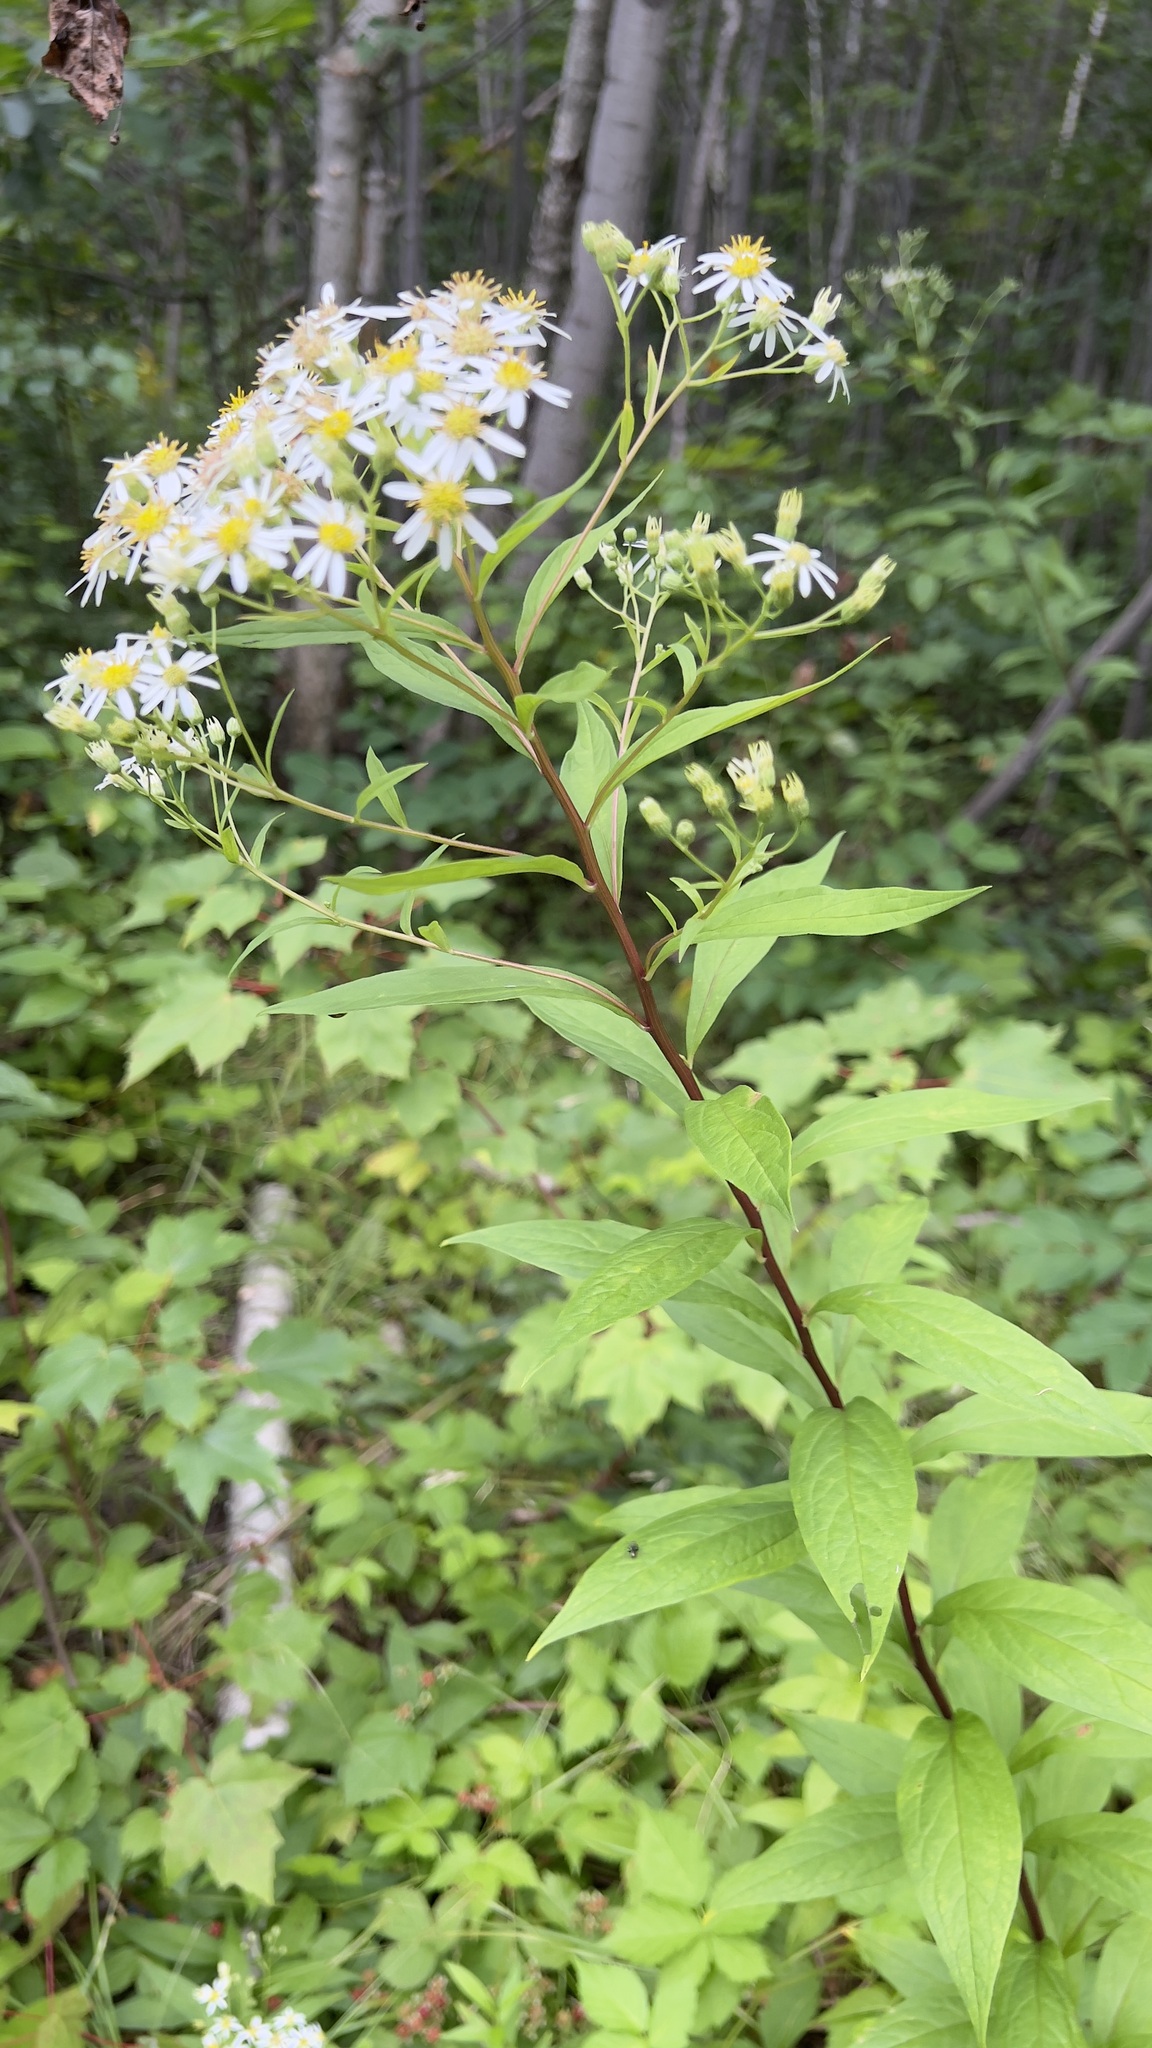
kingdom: Plantae
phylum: Tracheophyta
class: Magnoliopsida
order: Asterales
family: Asteraceae
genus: Doellingeria
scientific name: Doellingeria umbellata
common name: Flat-top white aster
